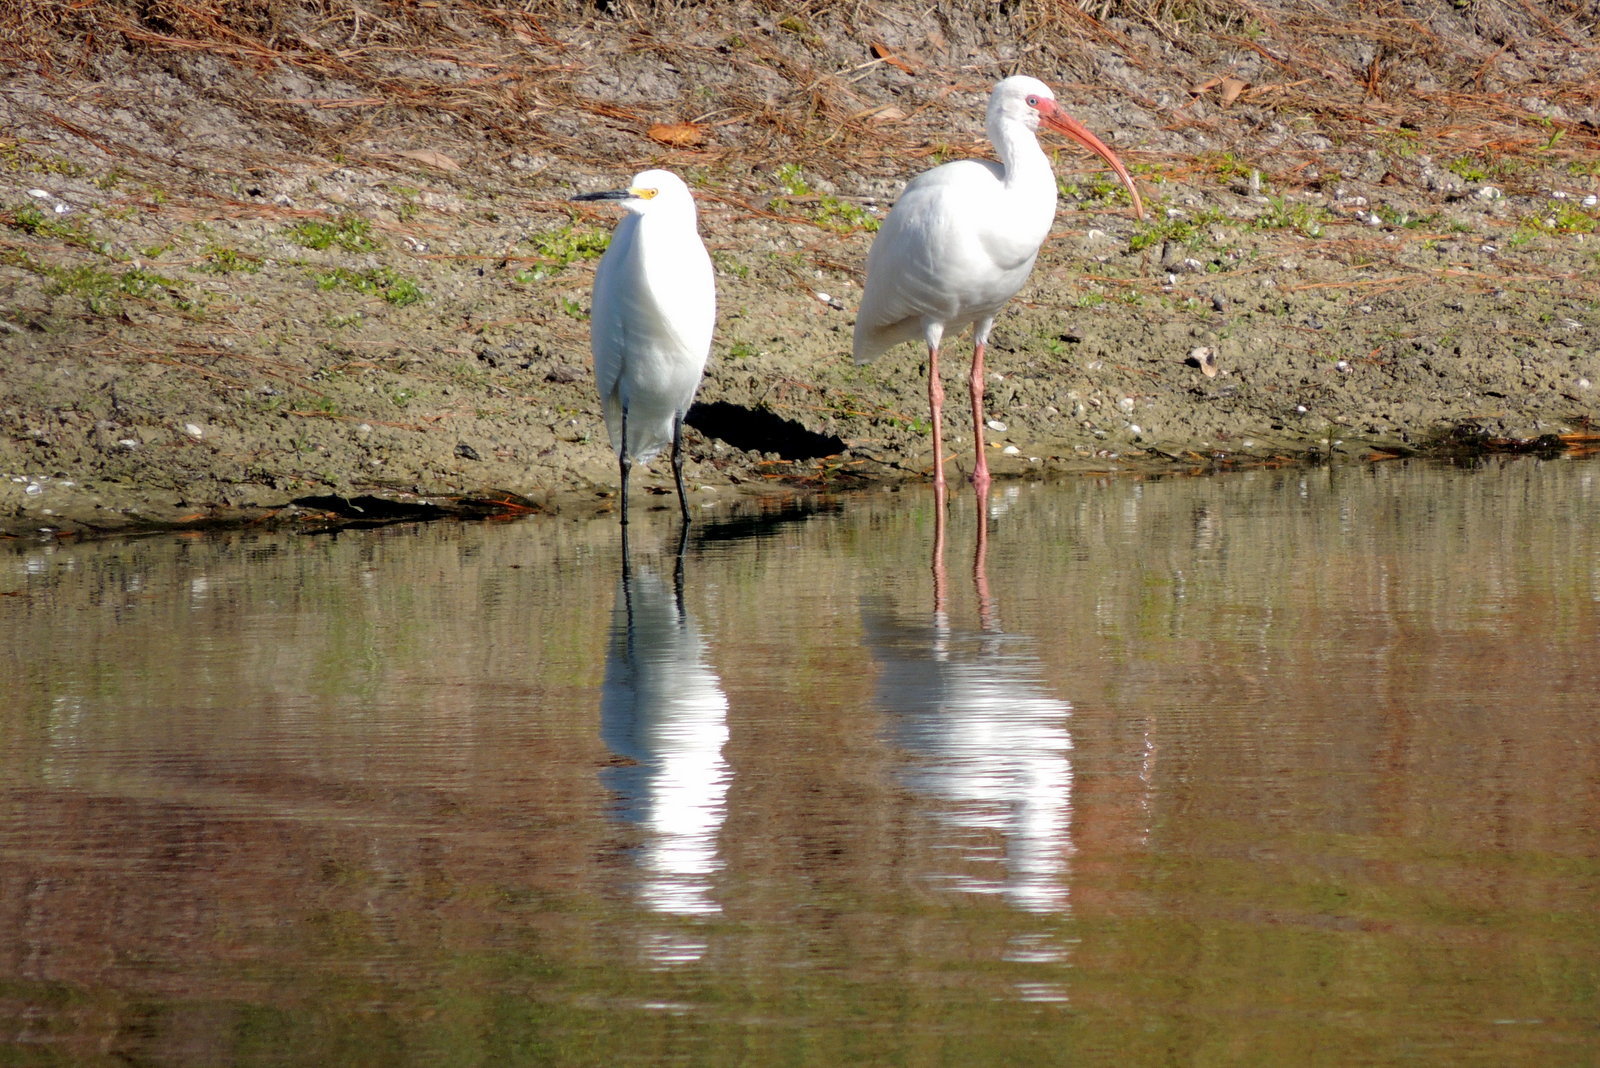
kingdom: Animalia
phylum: Chordata
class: Aves
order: Pelecaniformes
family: Ardeidae
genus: Egretta
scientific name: Egretta thula
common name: Snowy egret
